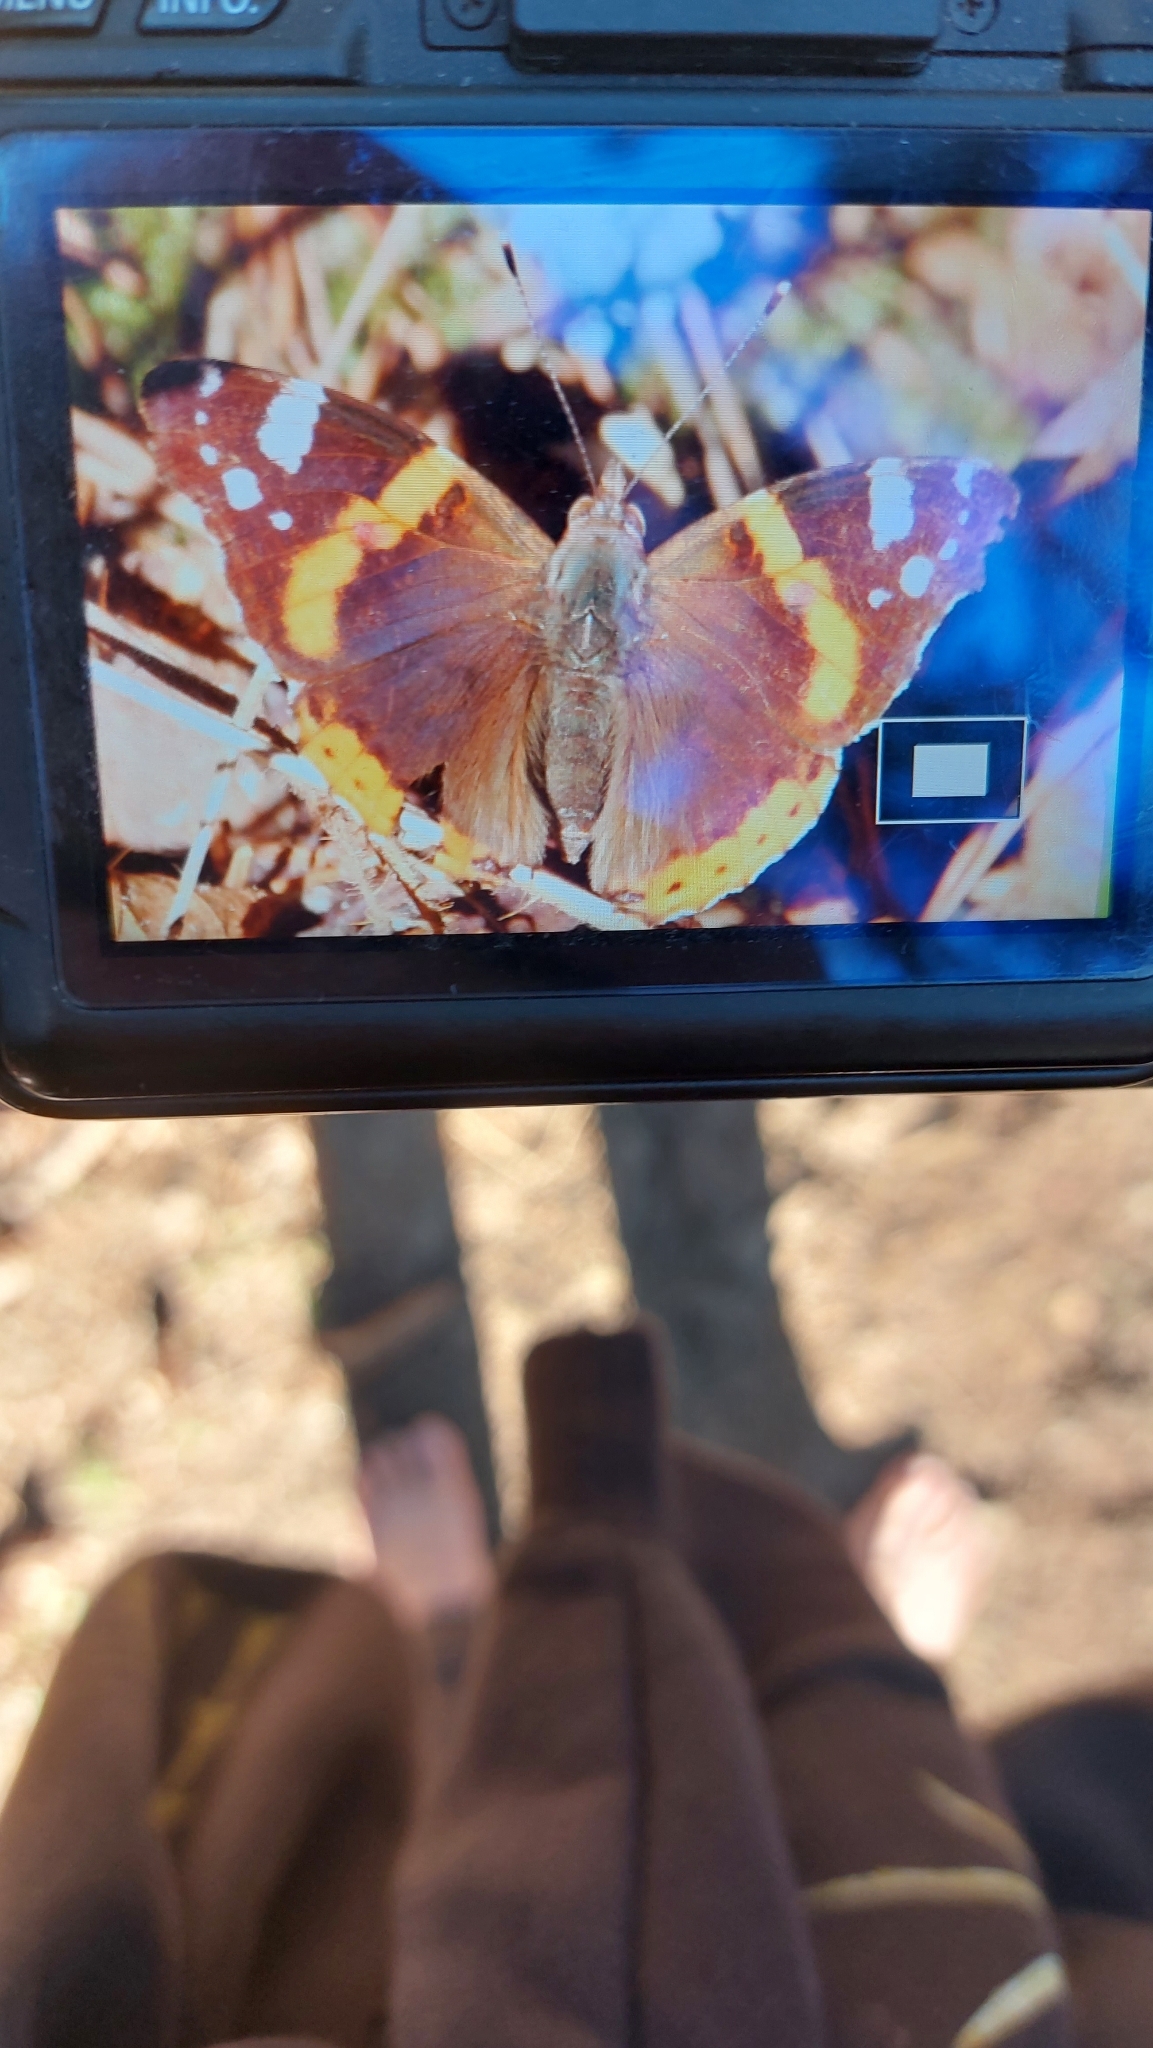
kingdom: Animalia
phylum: Arthropoda
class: Insecta
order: Lepidoptera
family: Nymphalidae
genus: Vanessa
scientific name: Vanessa atalanta
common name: Red admiral
